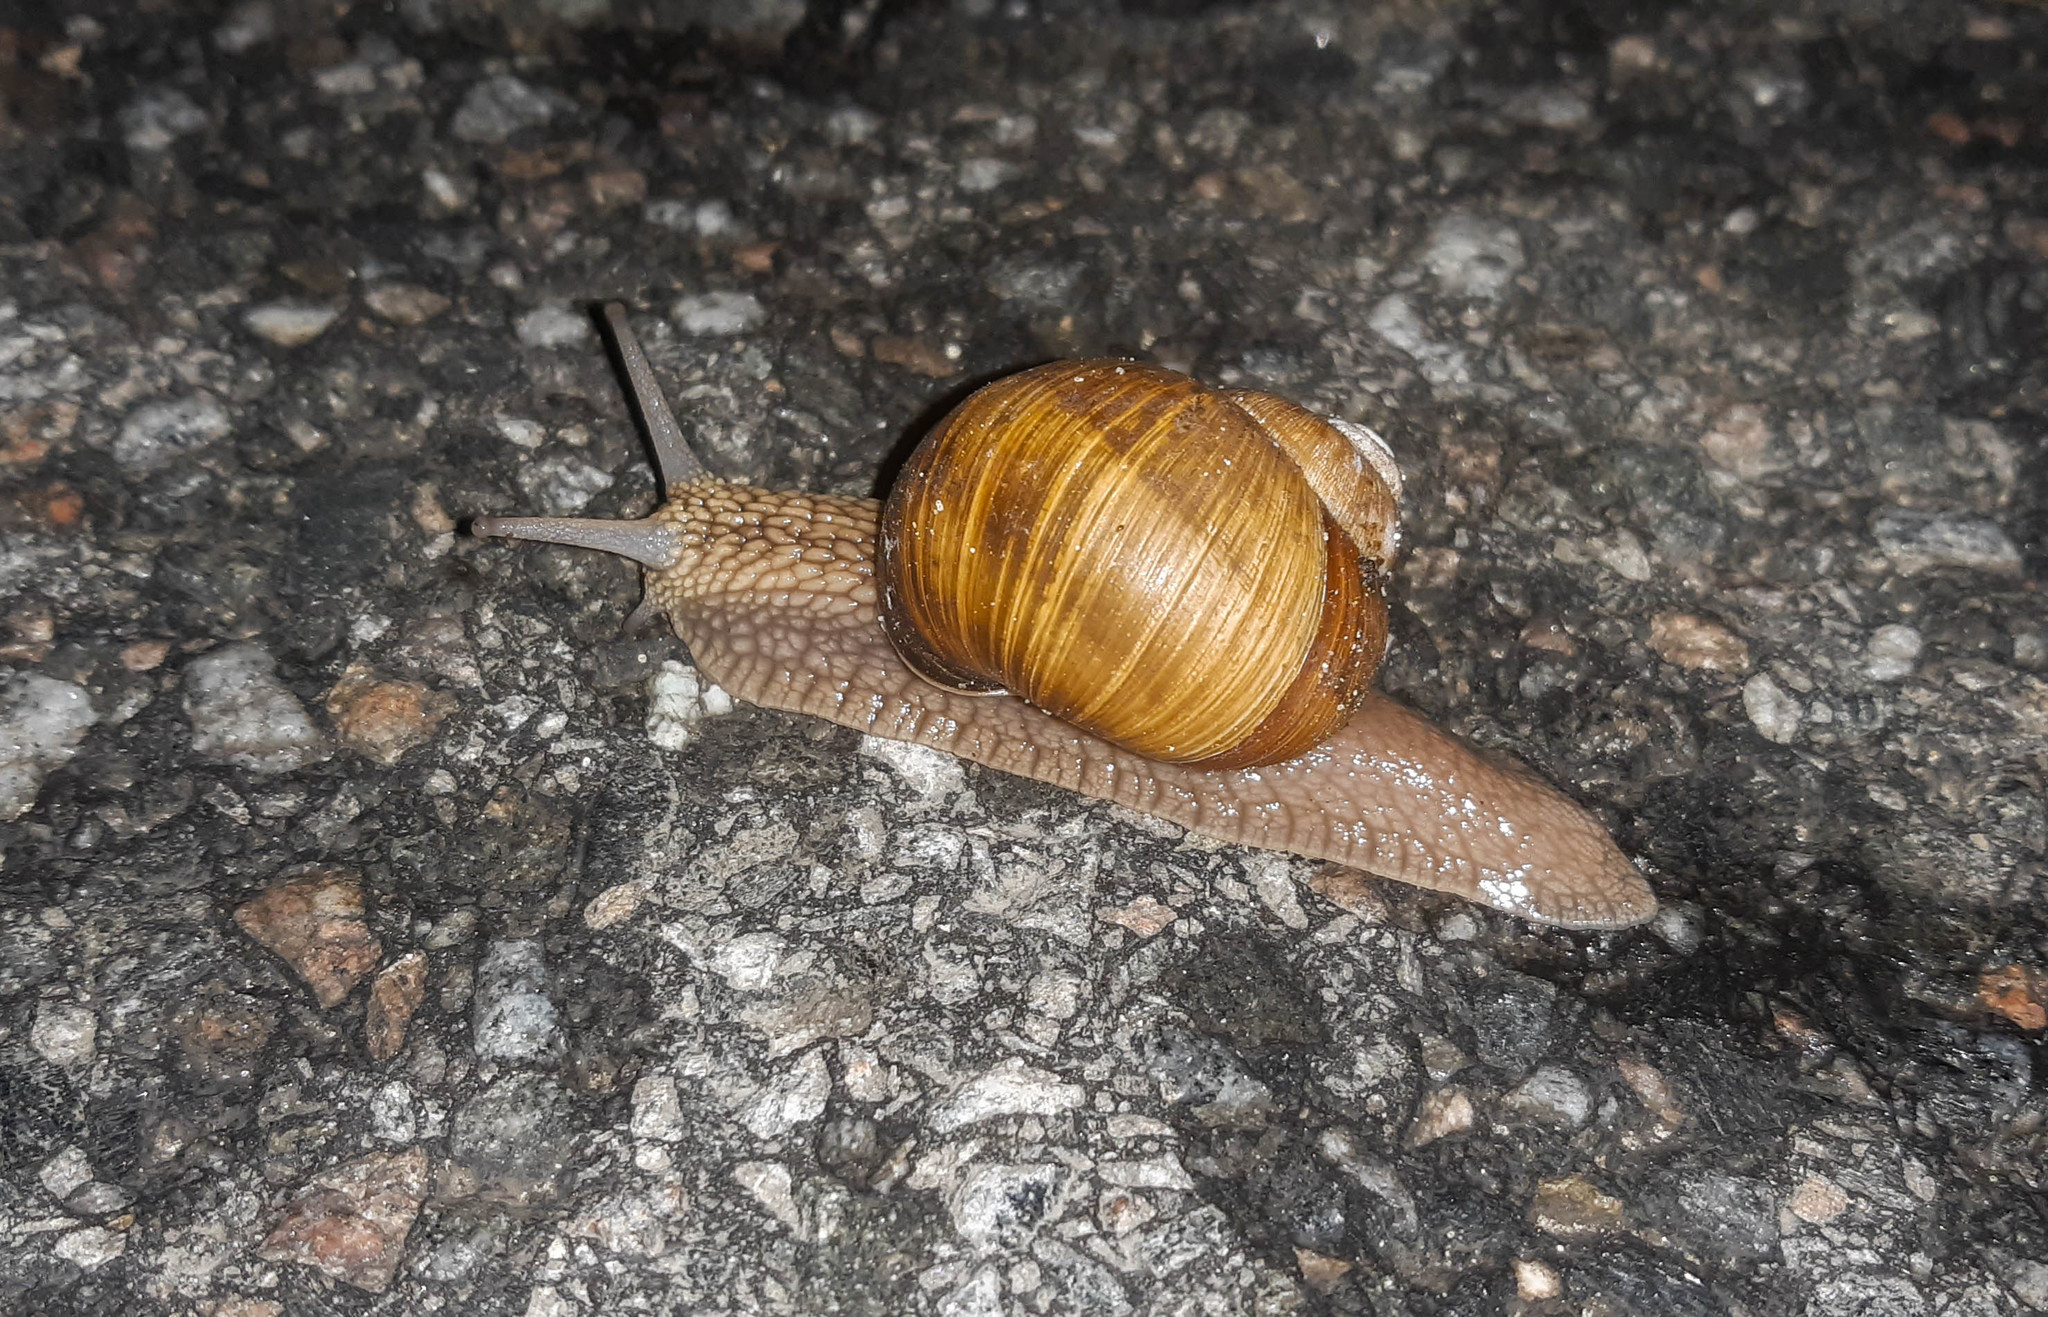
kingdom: Animalia
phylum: Mollusca
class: Gastropoda
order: Stylommatophora
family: Helicidae
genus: Helix
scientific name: Helix pomatia
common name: Roman snail
